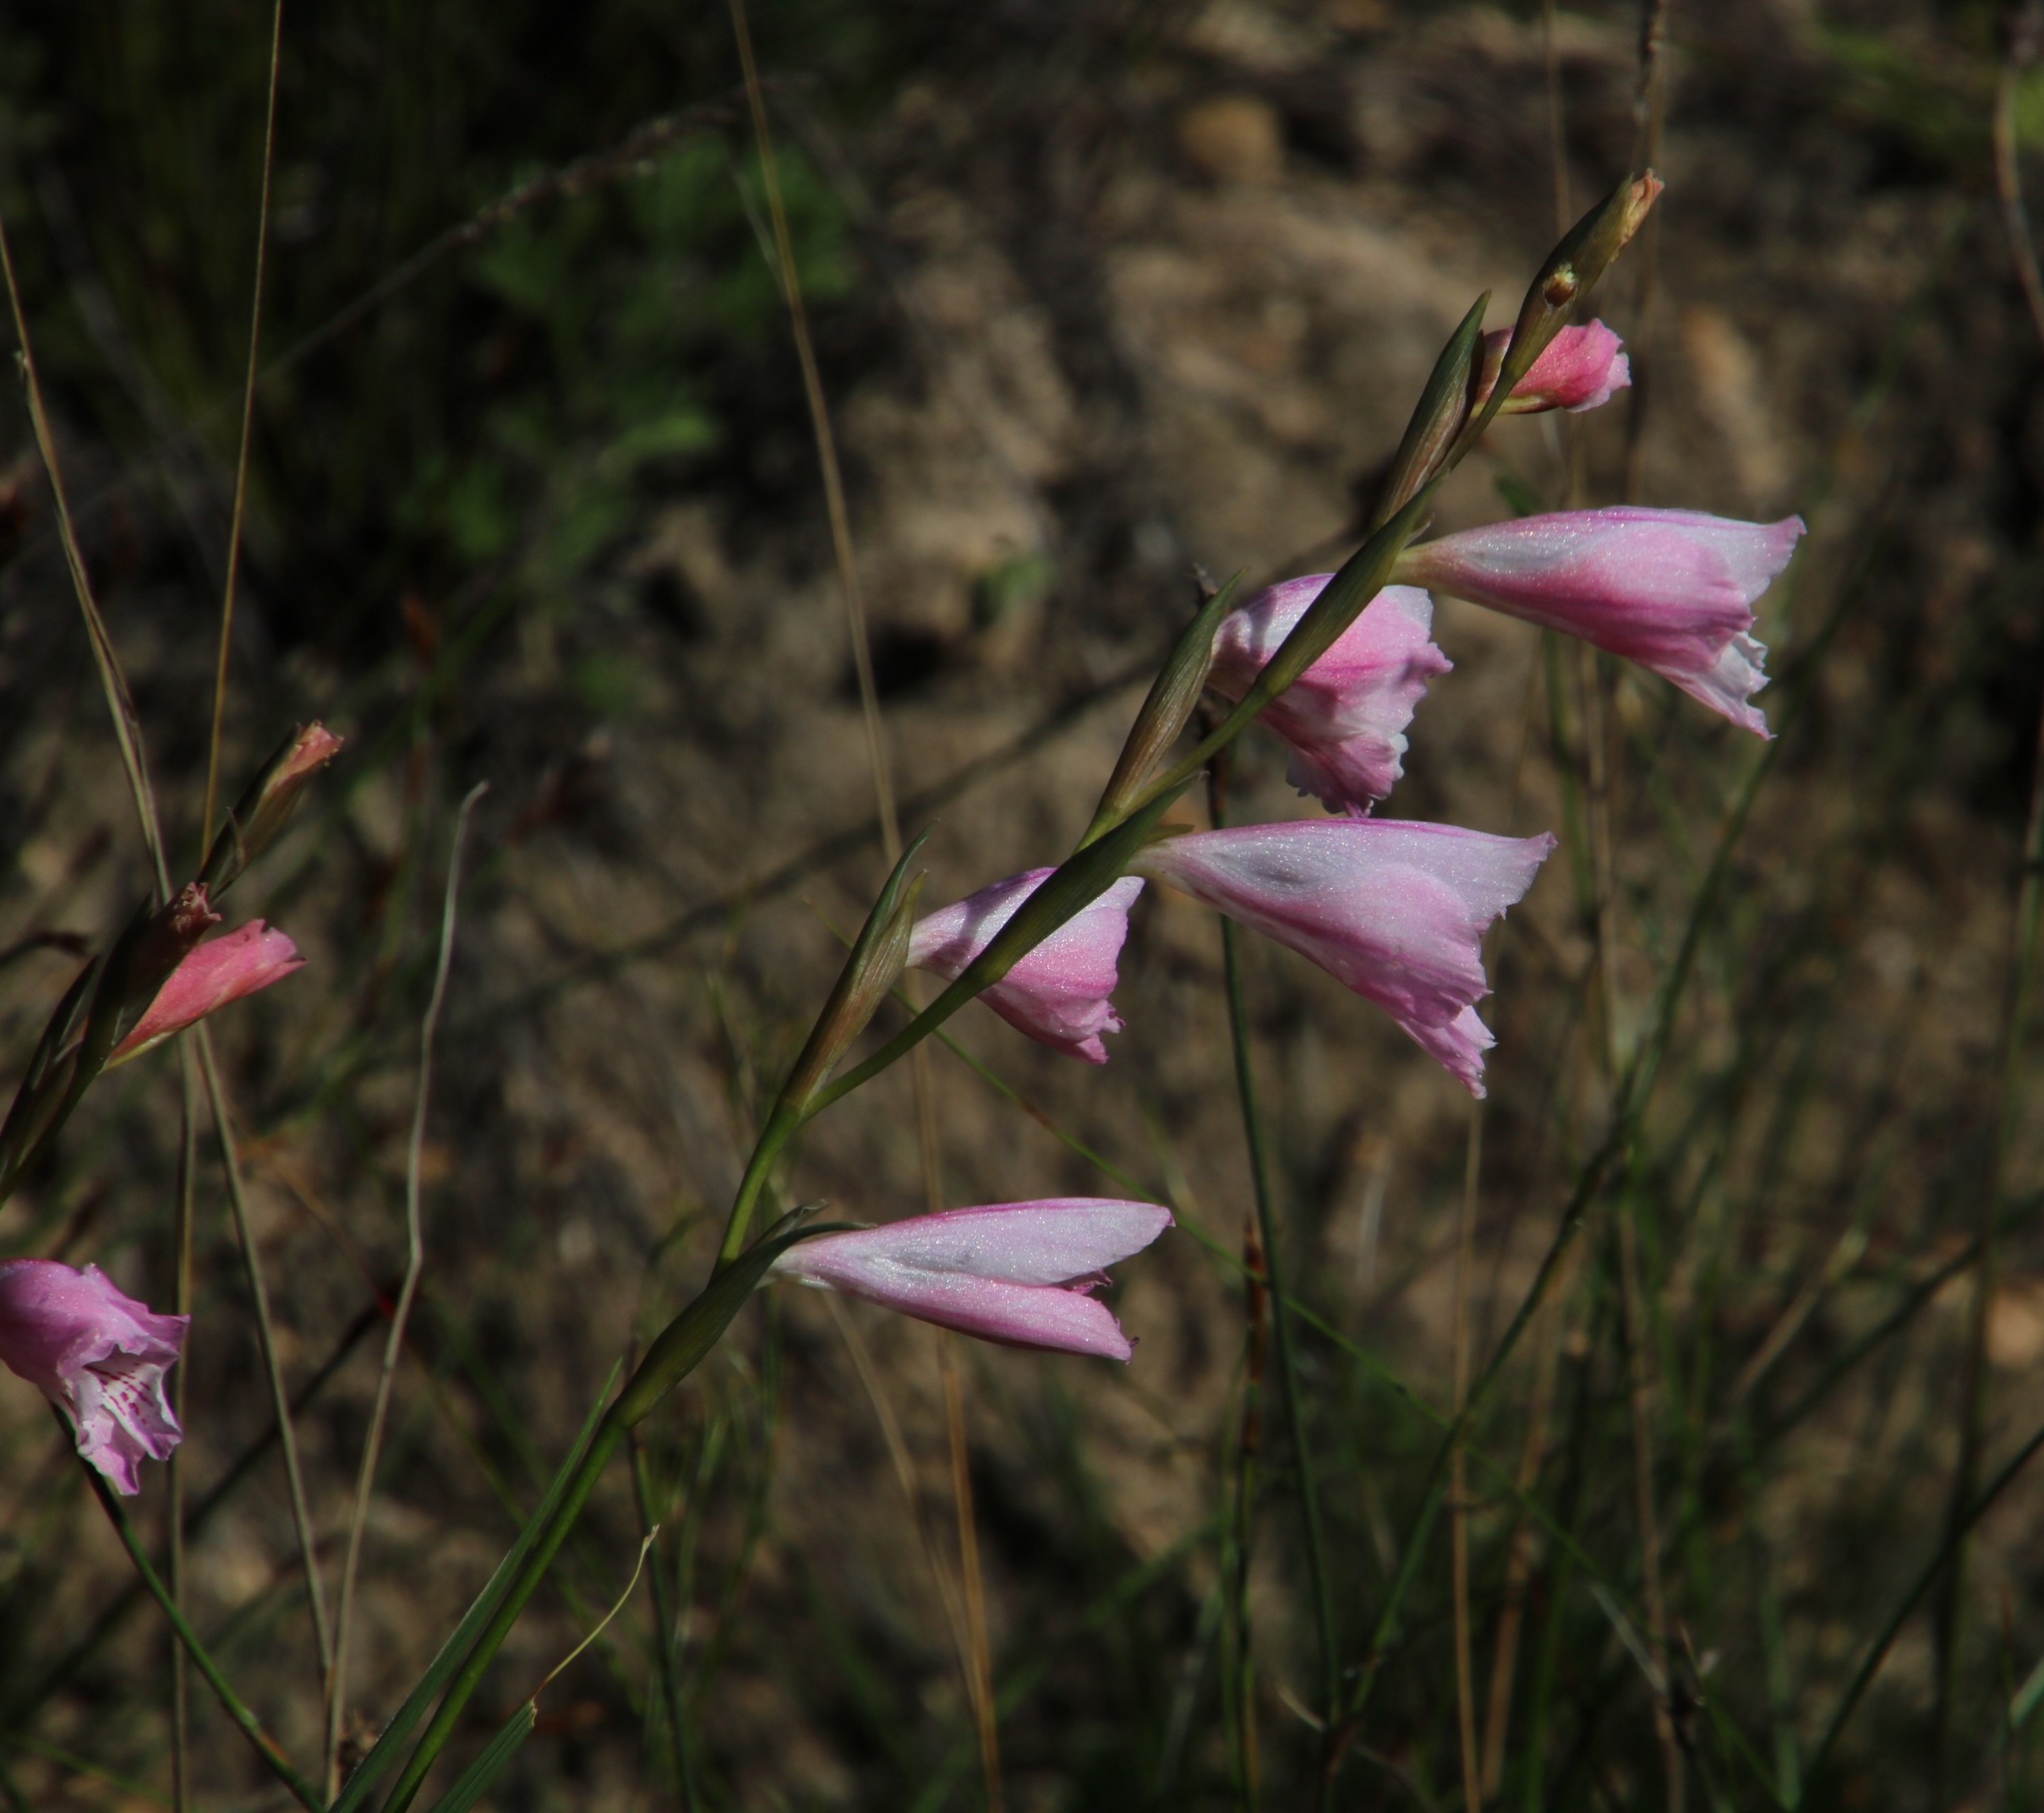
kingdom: Plantae
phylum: Tracheophyta
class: Liliopsida
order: Asparagales
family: Iridaceae
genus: Gladiolus
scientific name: Gladiolus hirsutus
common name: Small pink afrikaner
